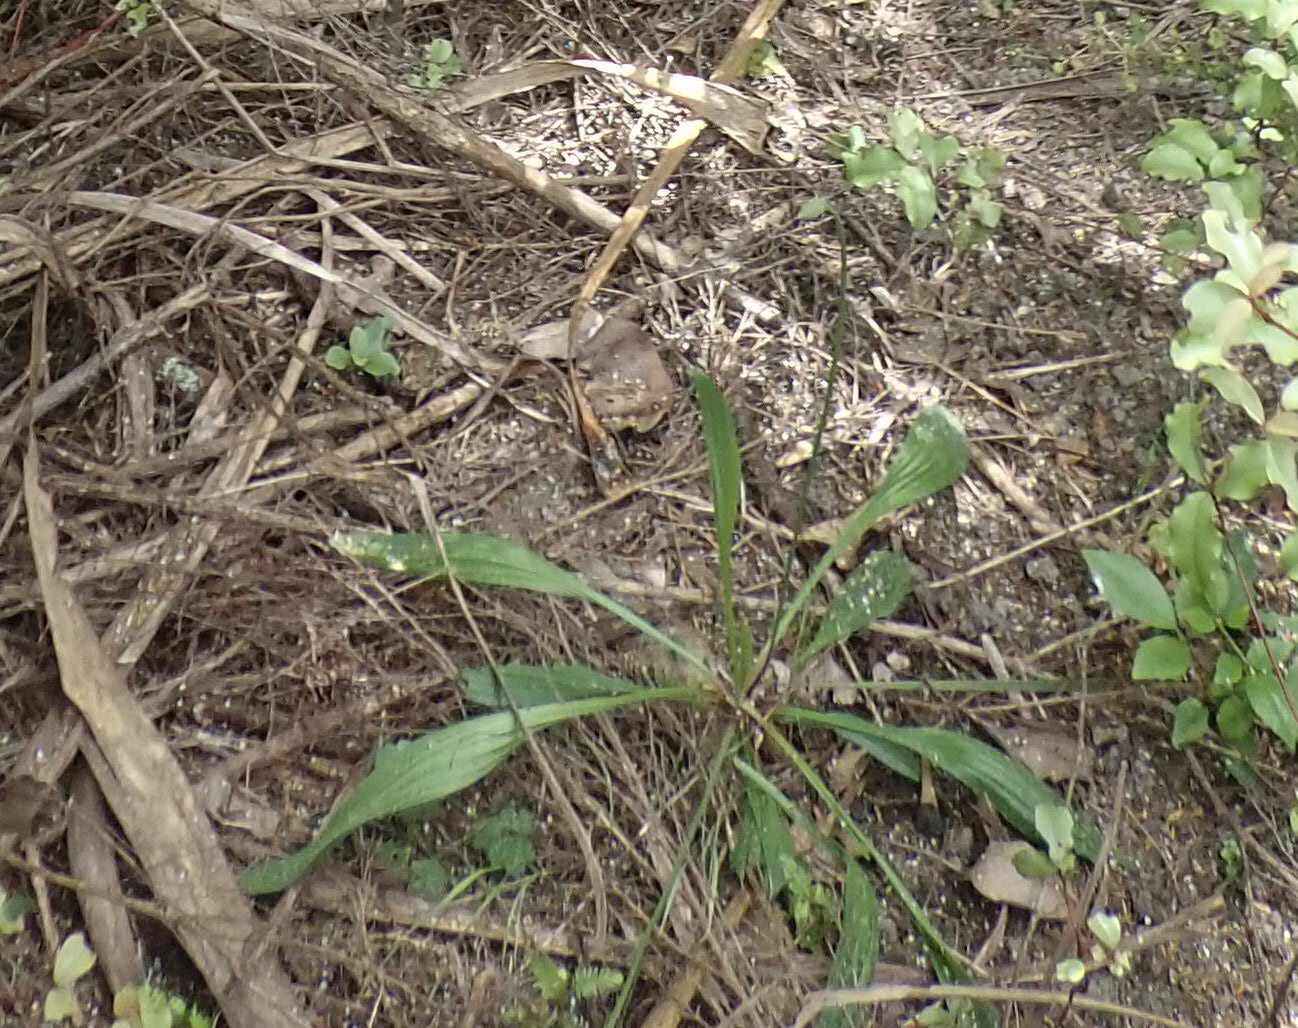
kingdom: Plantae
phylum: Tracheophyta
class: Magnoliopsida
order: Lamiales
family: Plantaginaceae
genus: Plantago
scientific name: Plantago lanceolata
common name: Ribwort plantain
